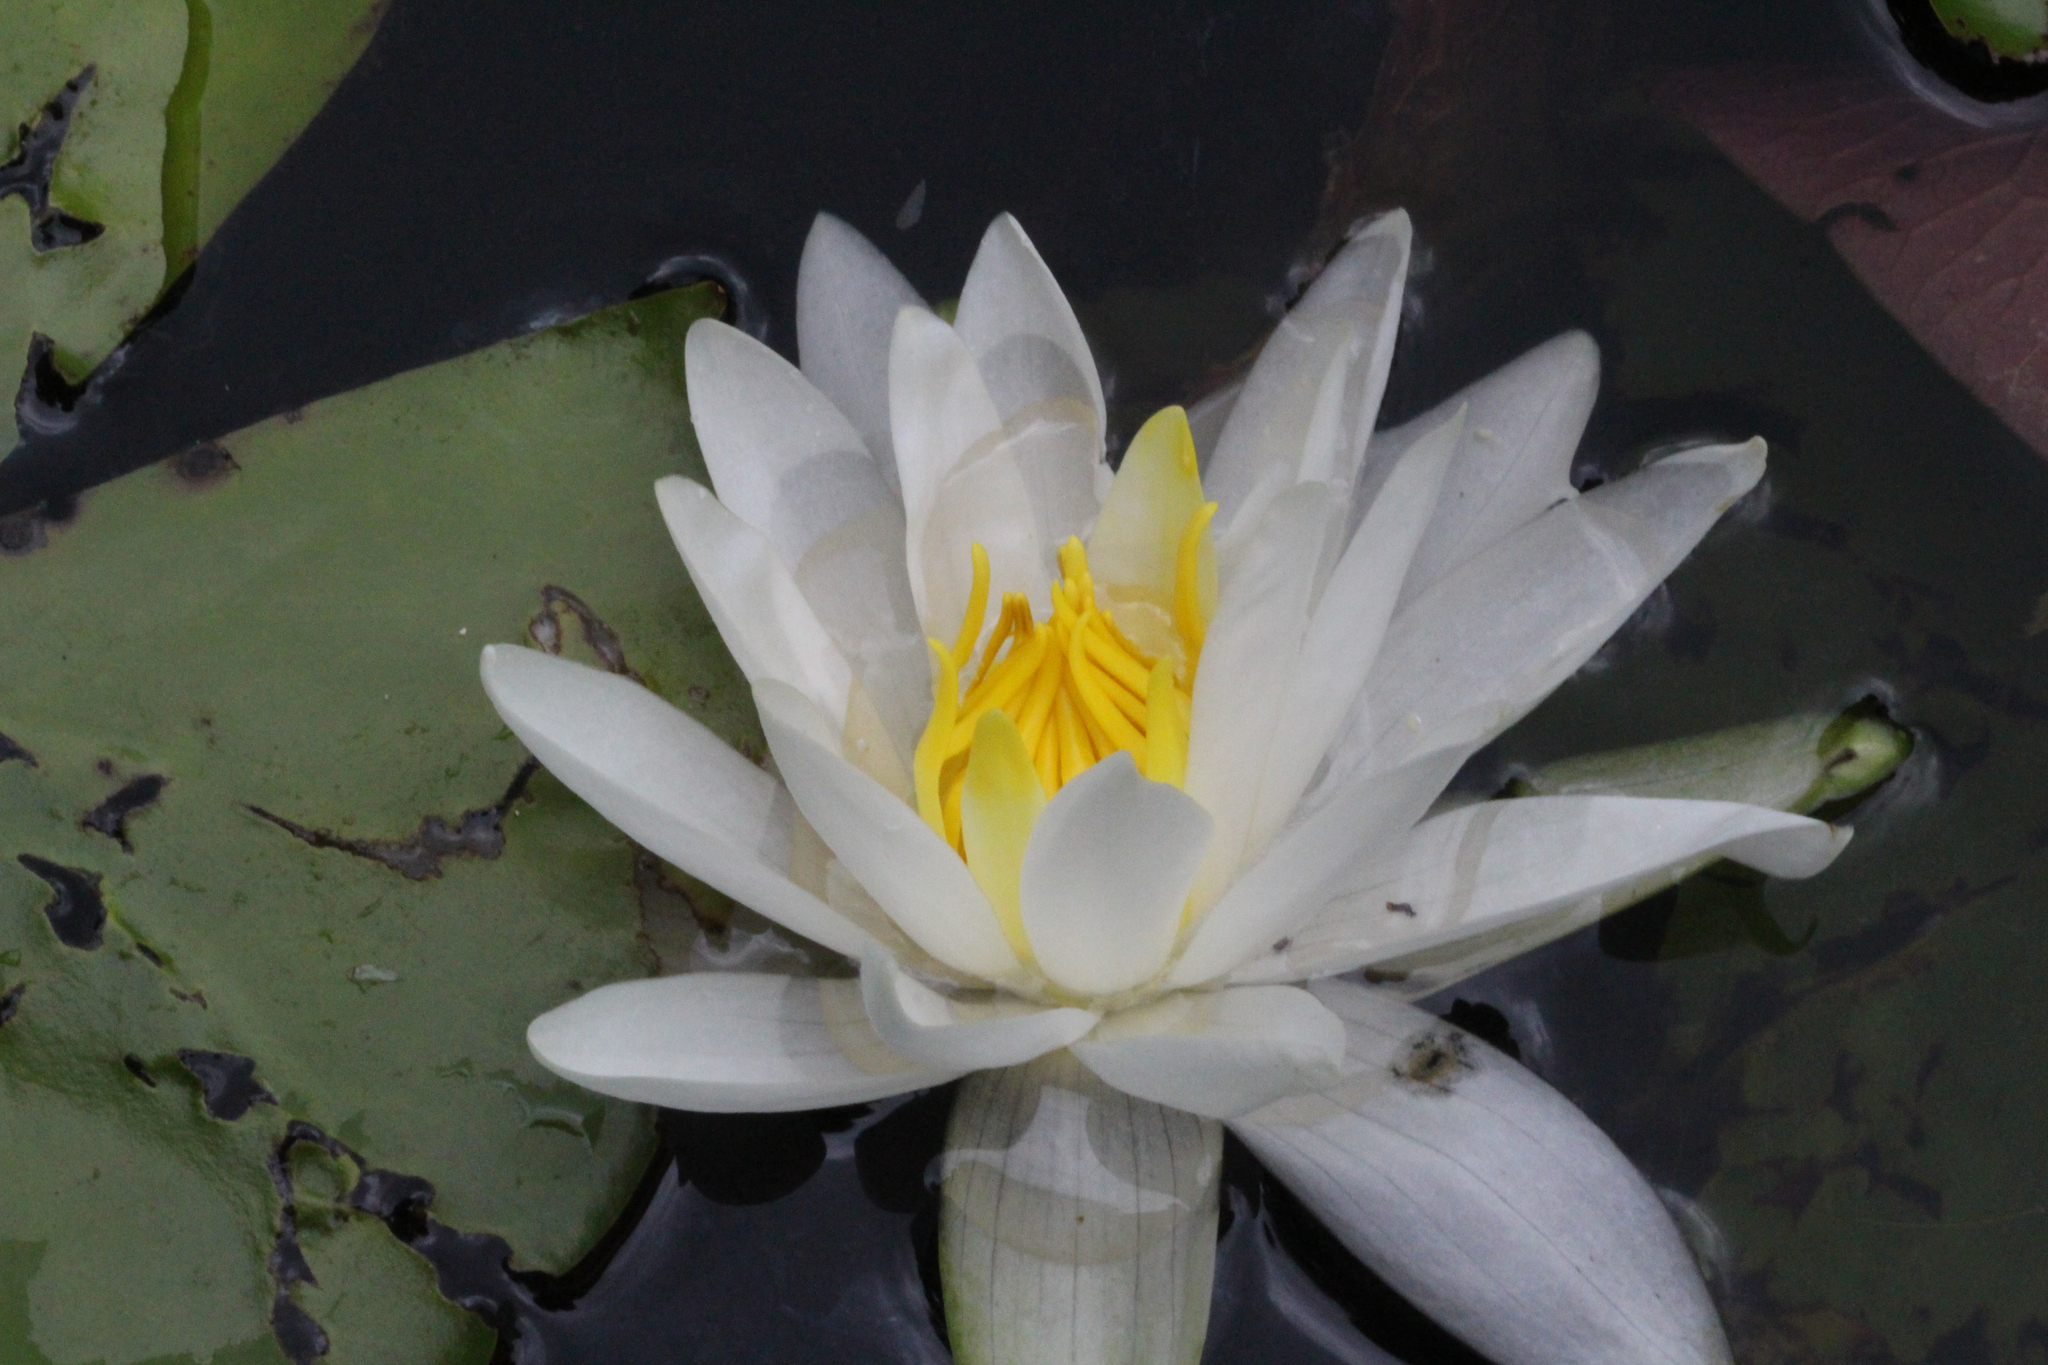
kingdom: Plantae
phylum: Tracheophyta
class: Magnoliopsida
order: Nymphaeales
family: Nymphaeaceae
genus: Nymphaea
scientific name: Nymphaea odorata
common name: Fragrant water-lily
